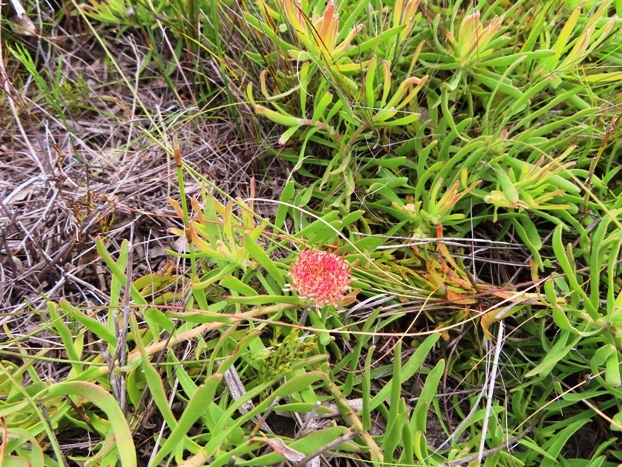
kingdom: Plantae
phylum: Tracheophyta
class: Magnoliopsida
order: Proteales
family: Proteaceae
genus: Leucospermum
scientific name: Leucospermum pedunculatum
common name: White-trailing pincushion
